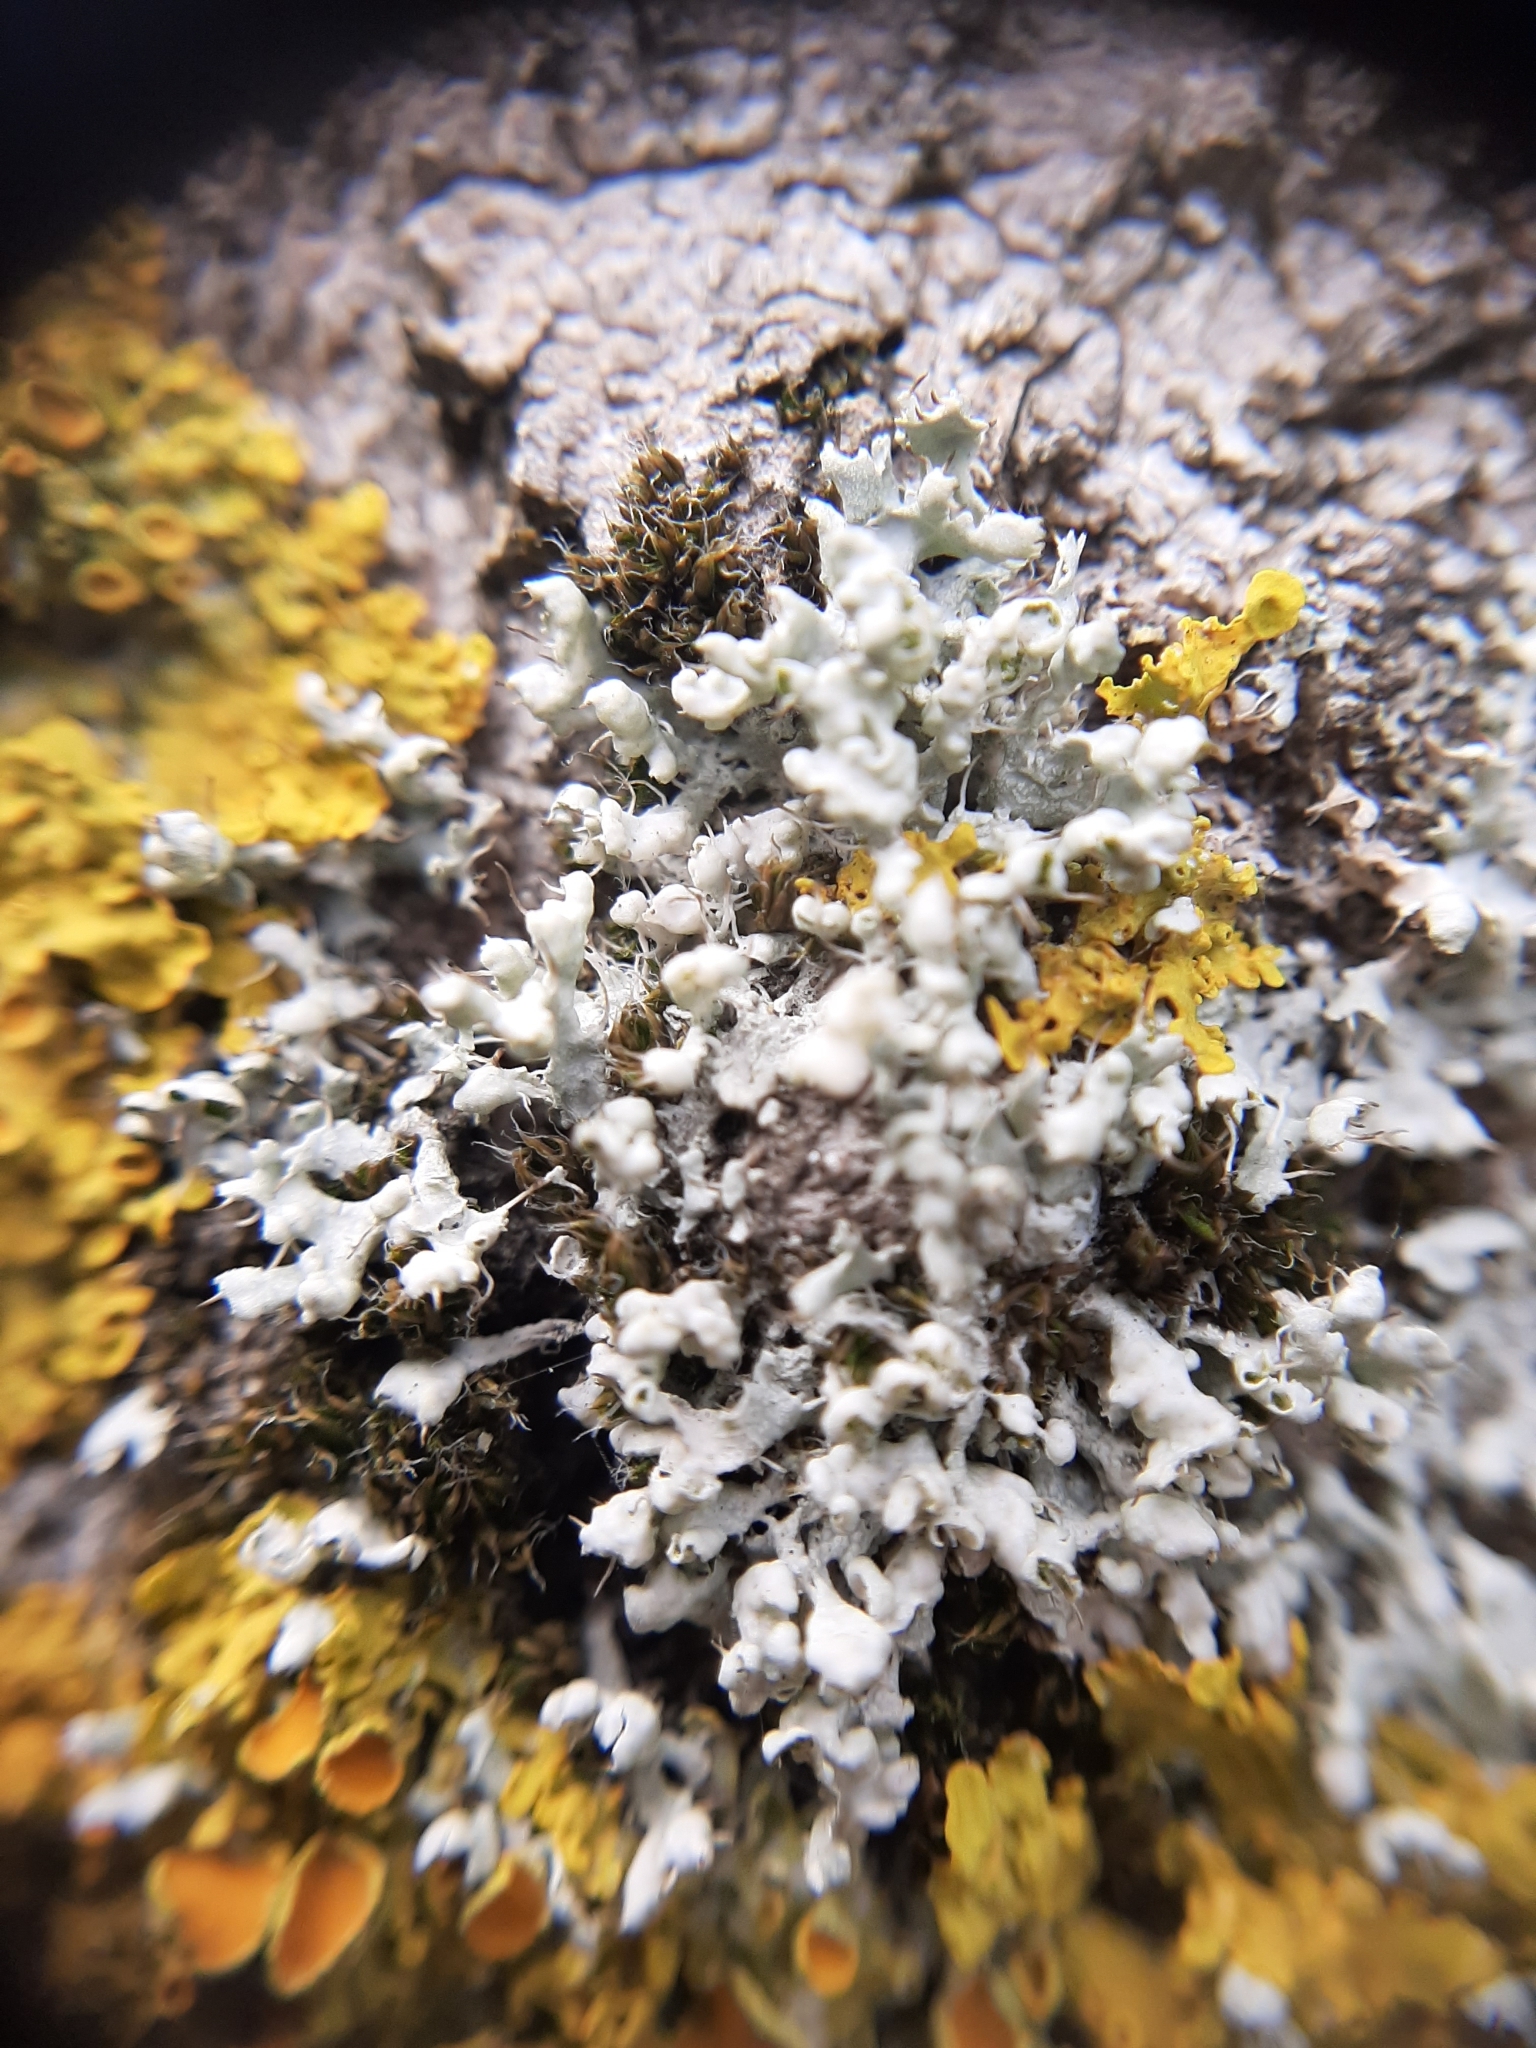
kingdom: Fungi
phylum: Ascomycota
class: Lecanoromycetes
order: Caliciales
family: Physciaceae
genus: Physcia
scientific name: Physcia adscendens
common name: Hooded rosette lichen
